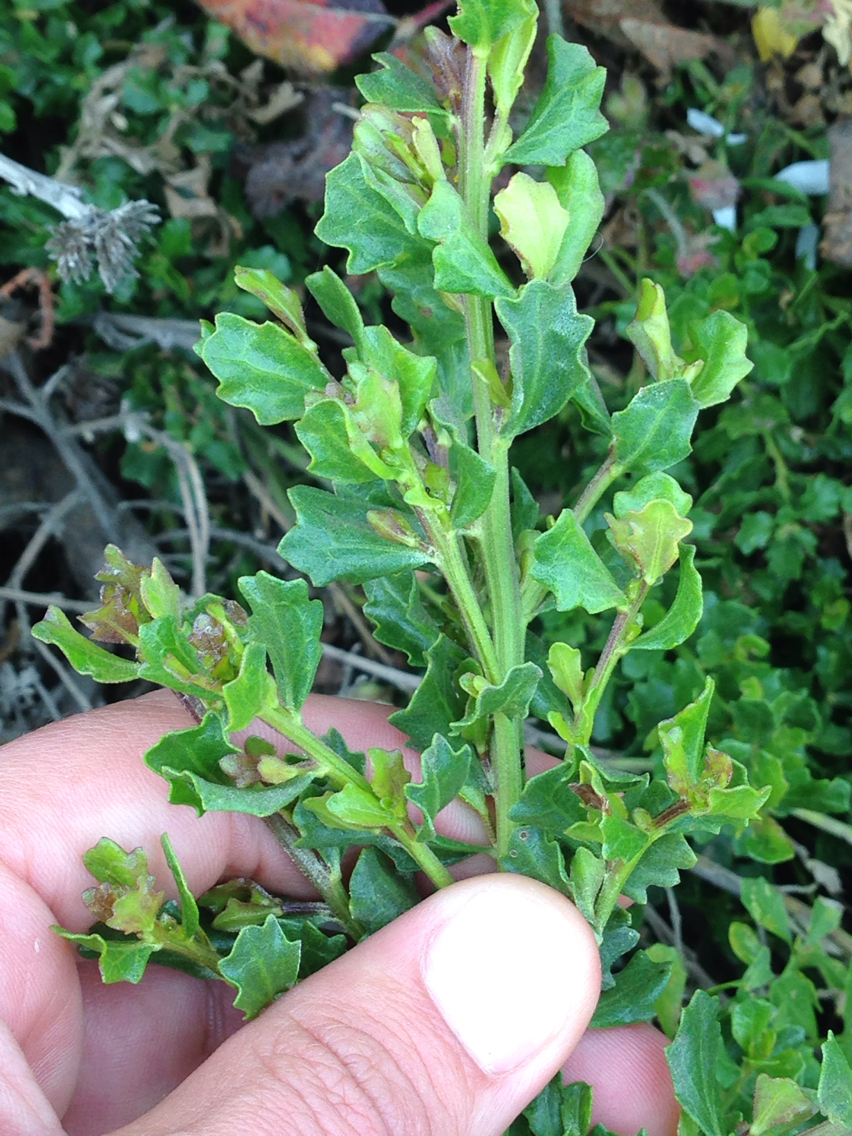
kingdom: Plantae
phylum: Tracheophyta
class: Magnoliopsida
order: Asterales
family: Asteraceae
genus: Baccharis
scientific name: Baccharis pilularis
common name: Coyotebrush
